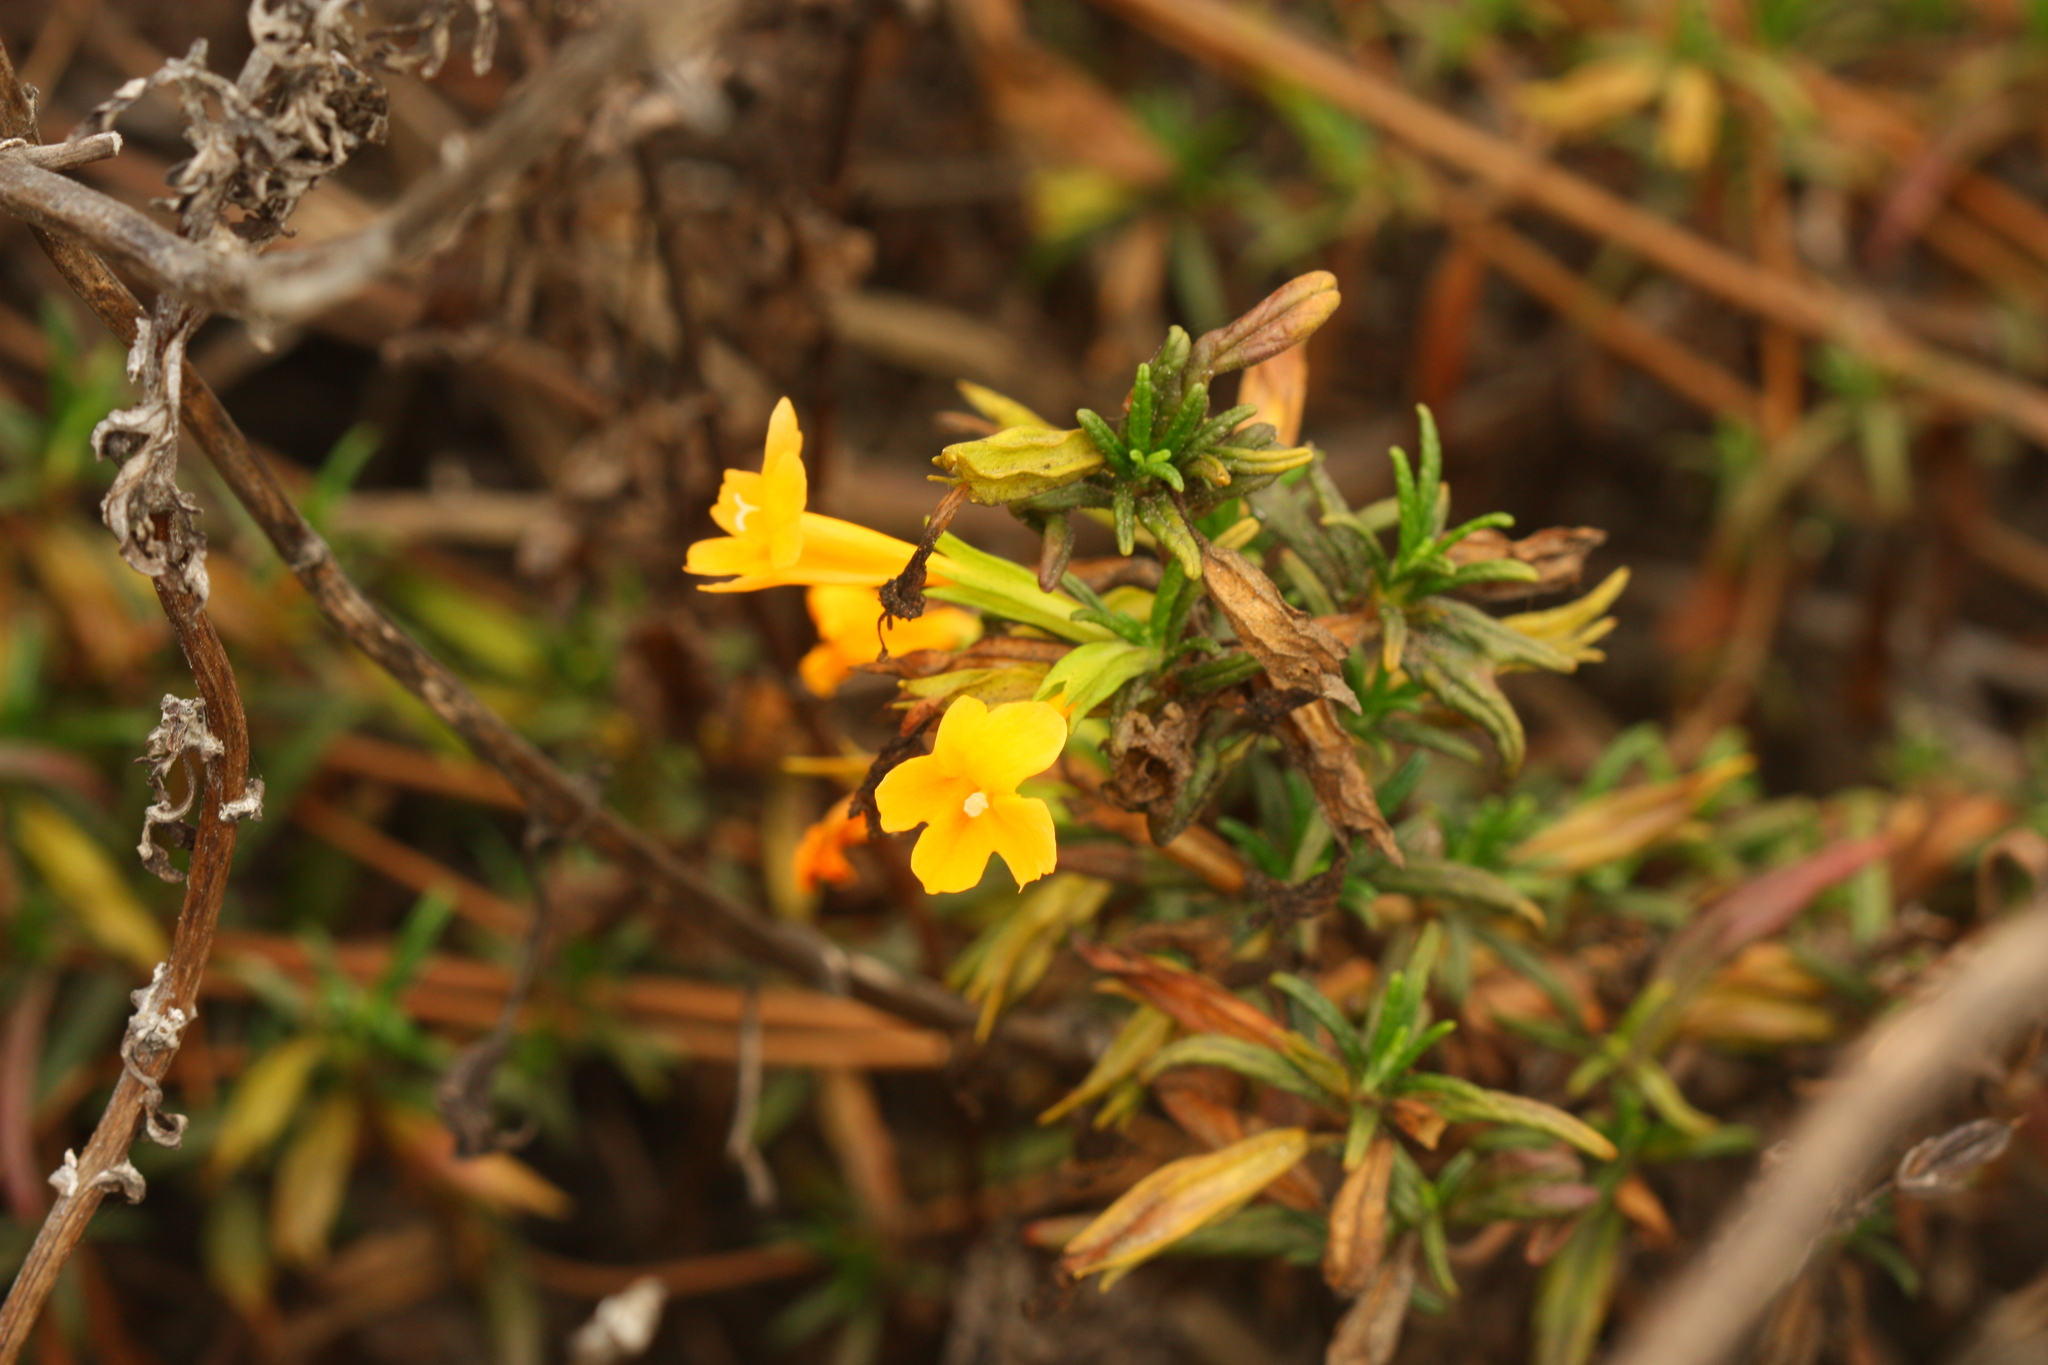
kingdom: Plantae
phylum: Tracheophyta
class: Magnoliopsida
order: Lamiales
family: Phrymaceae
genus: Diplacus
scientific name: Diplacus aurantiacus
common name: Bush monkey-flower
